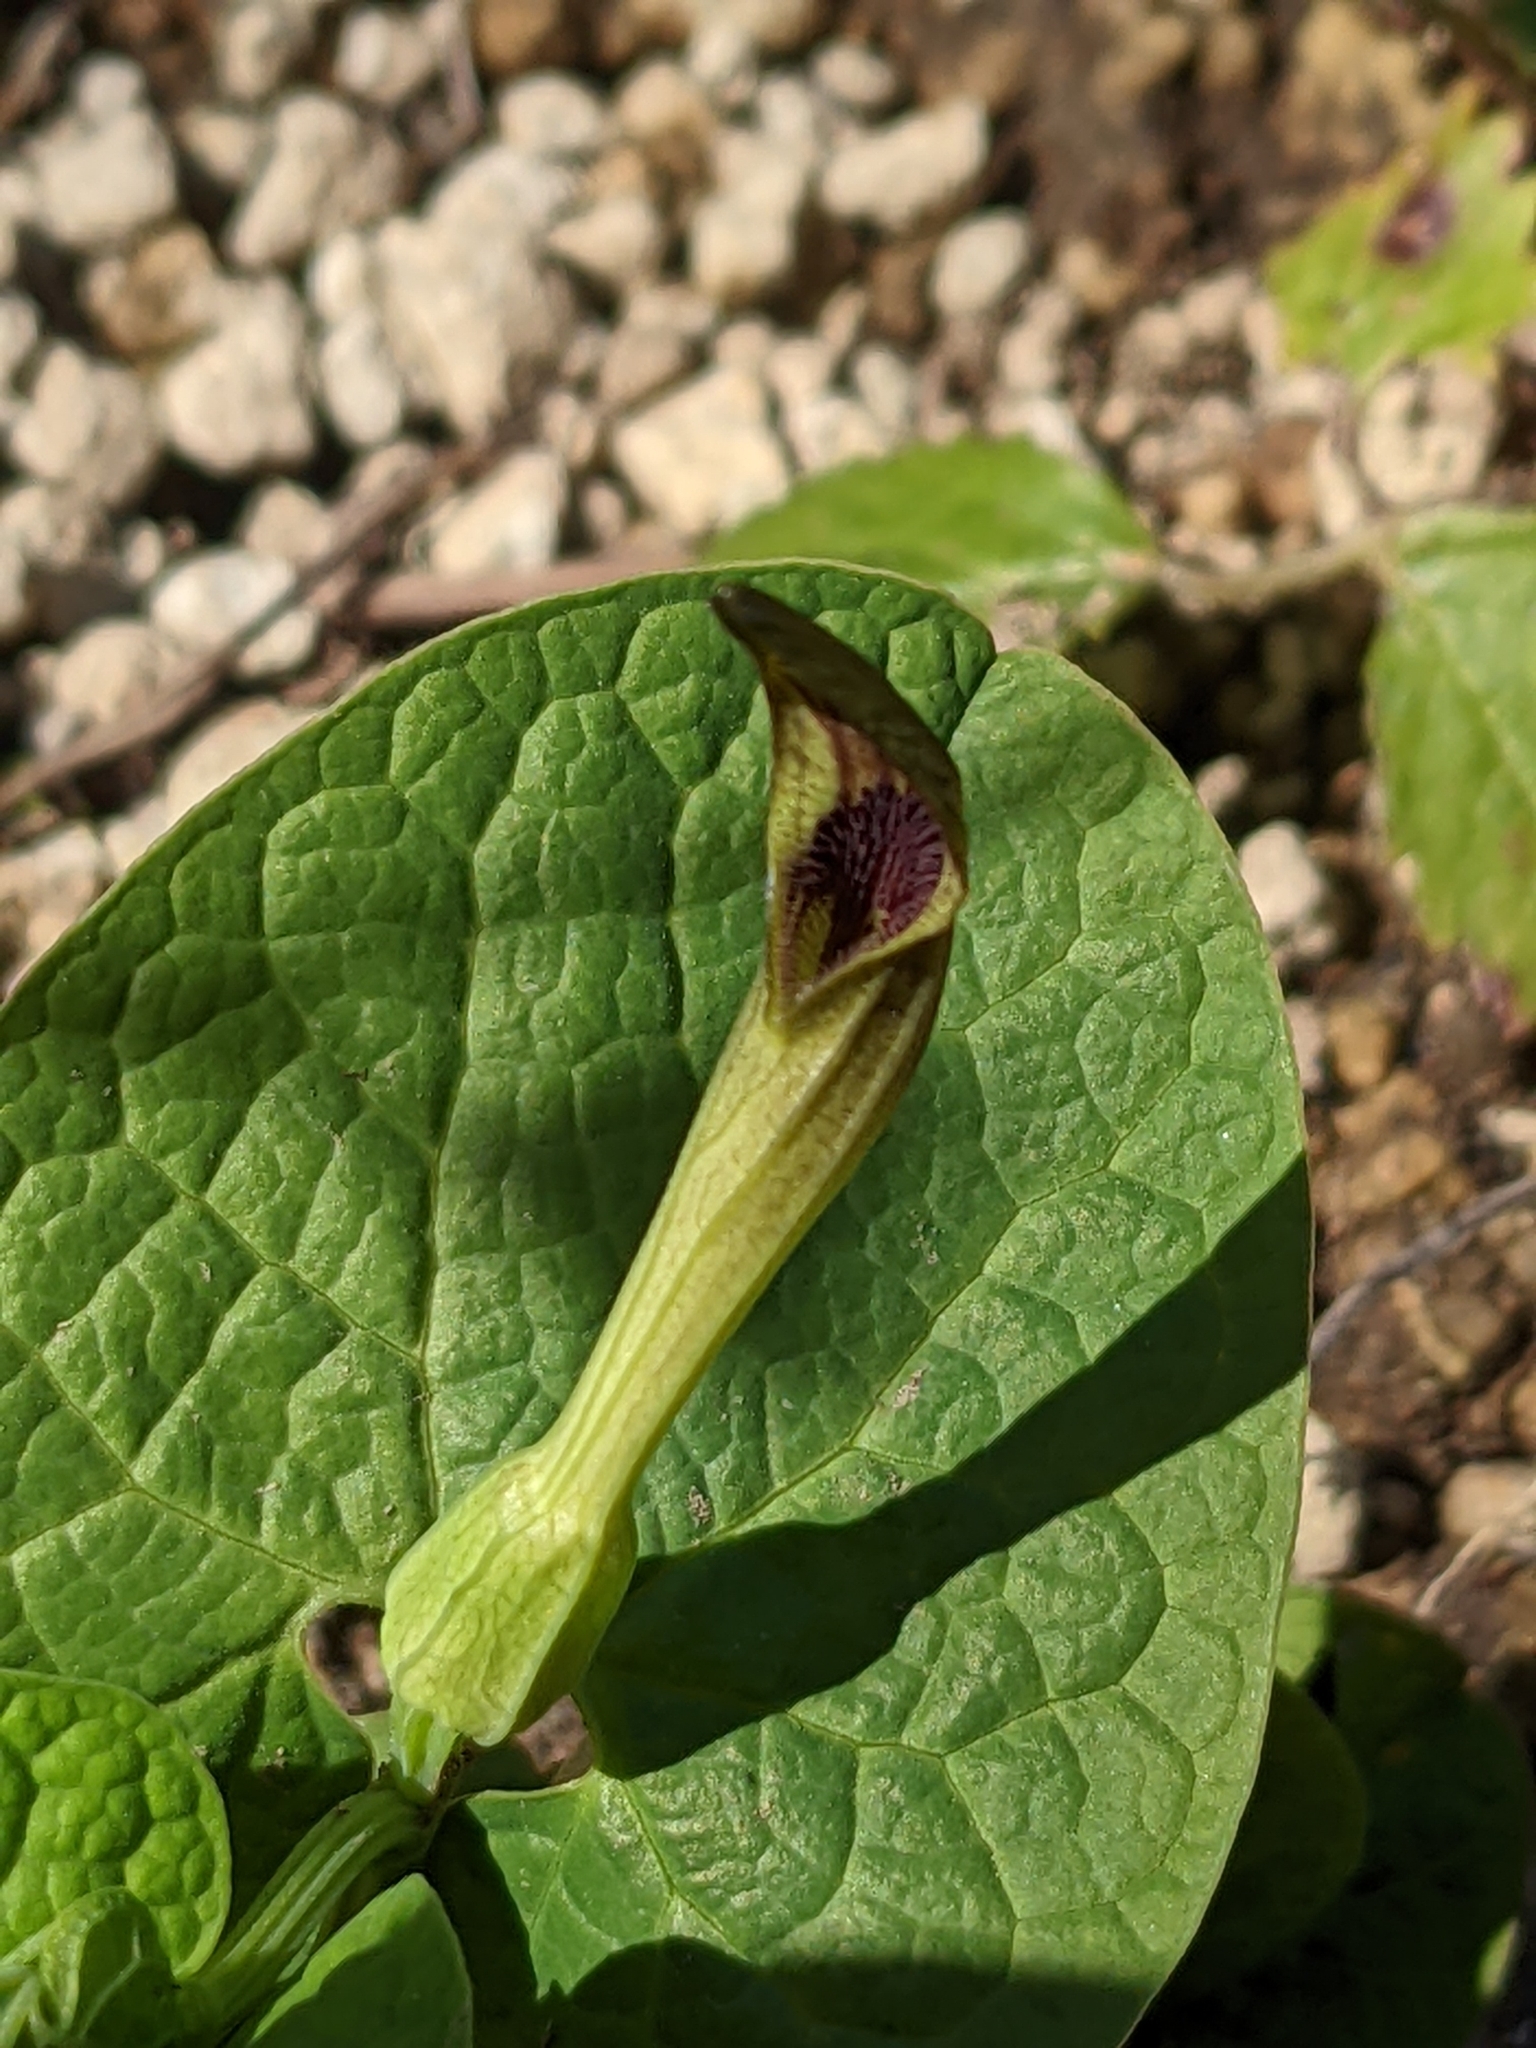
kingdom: Plantae
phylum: Tracheophyta
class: Magnoliopsida
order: Piperales
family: Aristolochiaceae
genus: Aristolochia
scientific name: Aristolochia lutea
